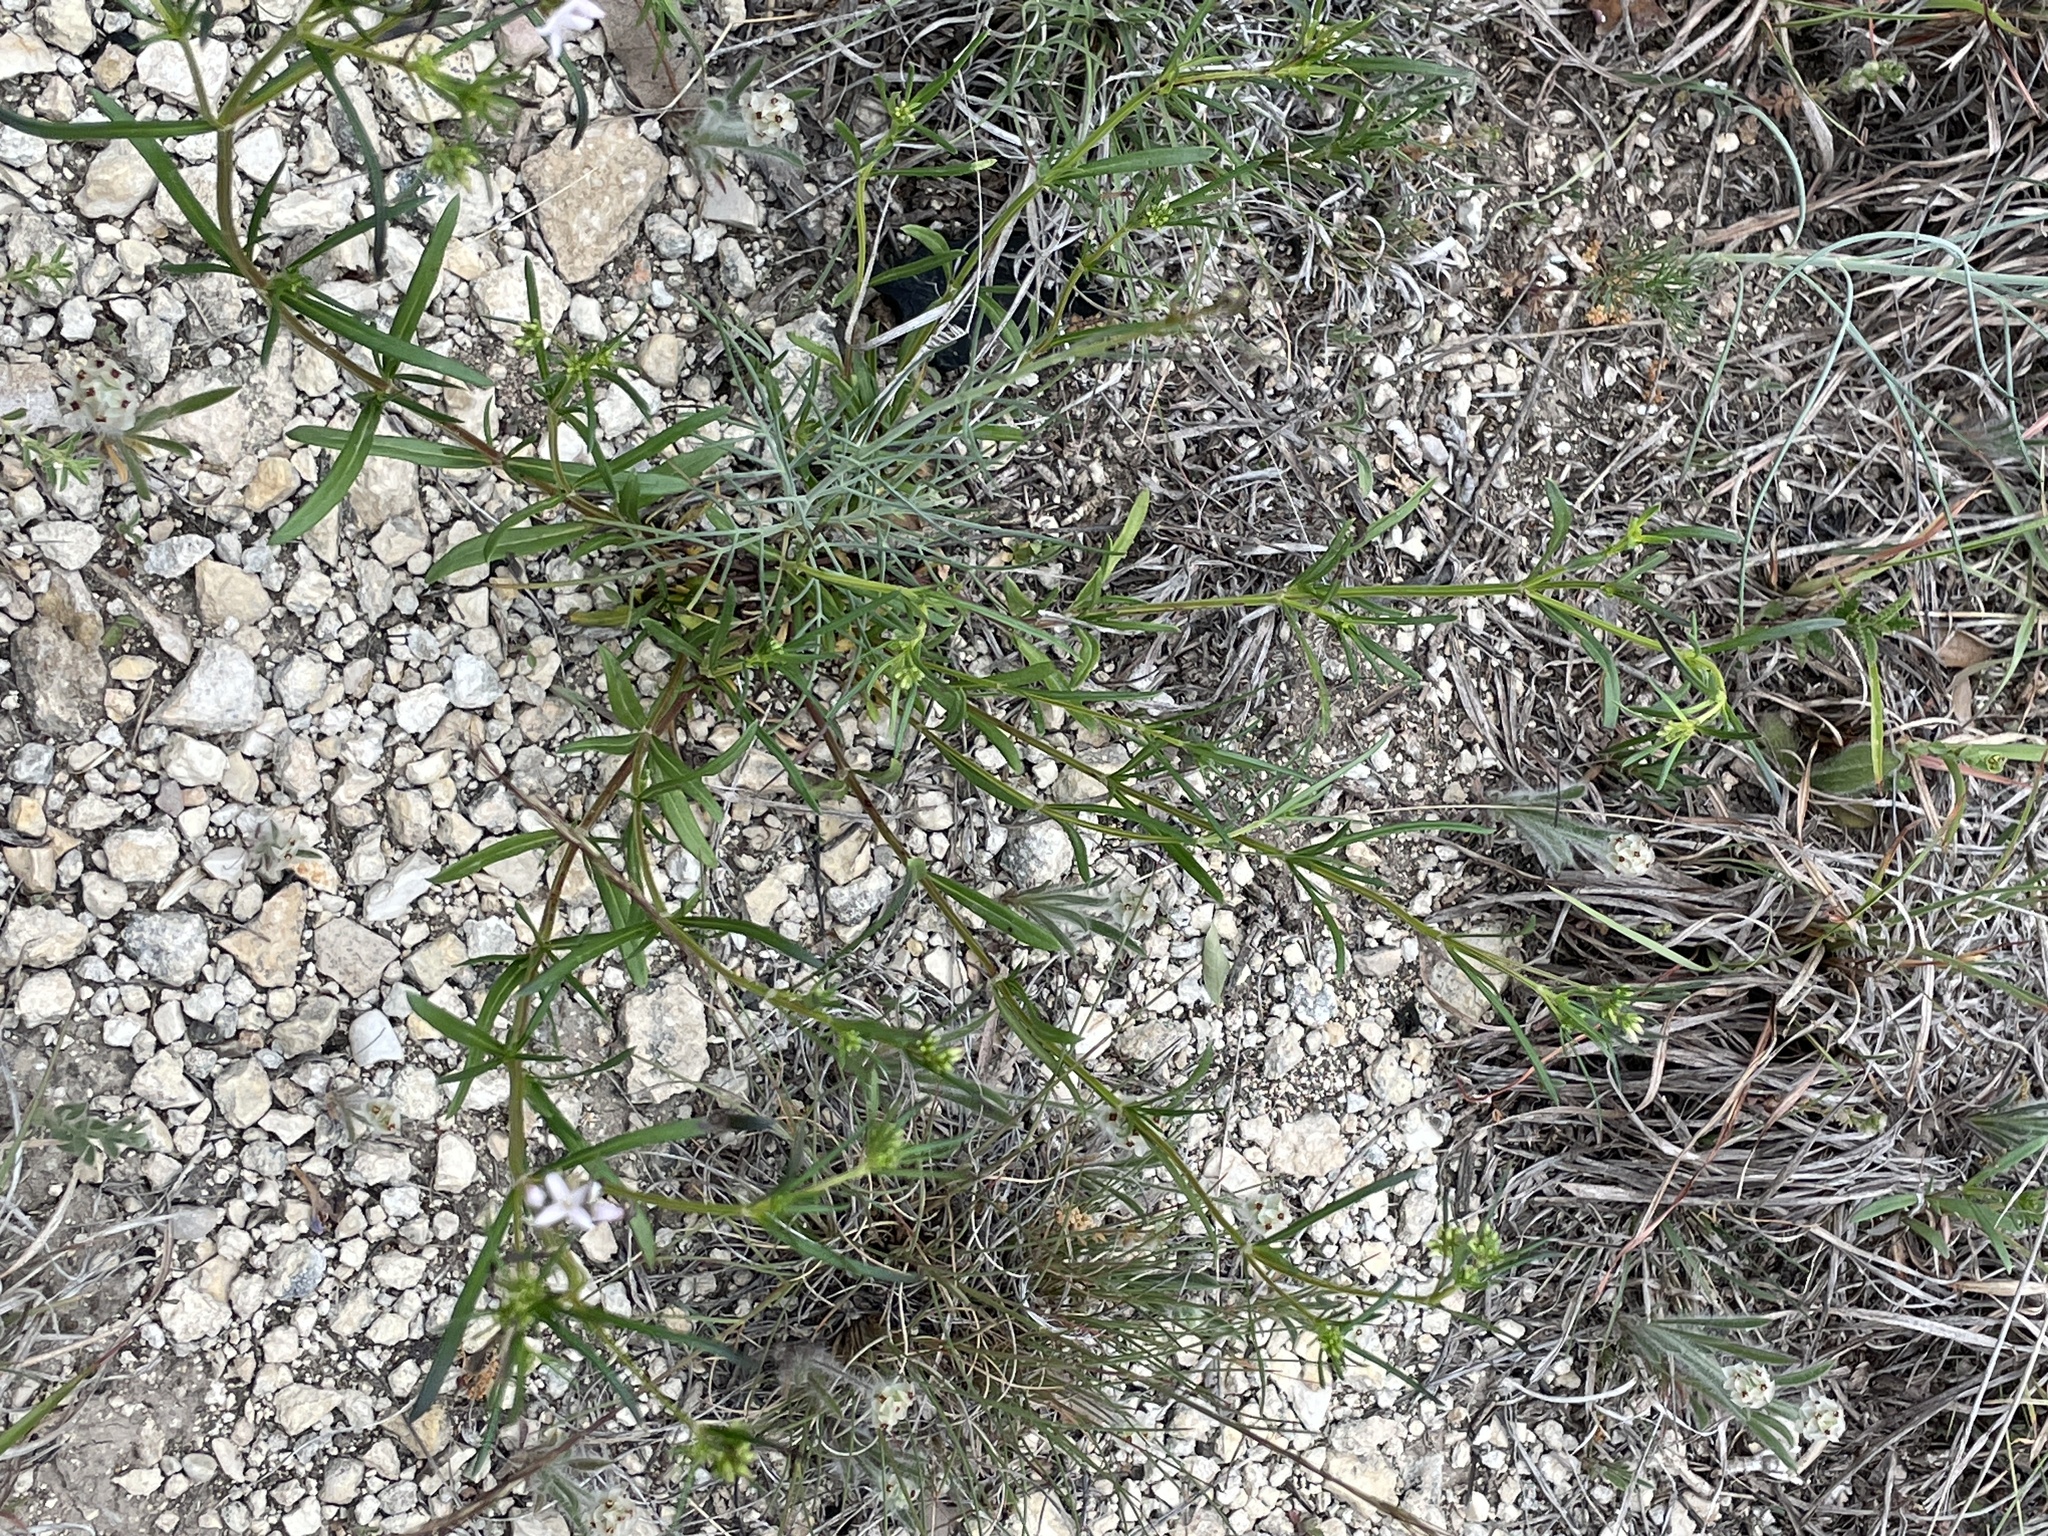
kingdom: Plantae
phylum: Tracheophyta
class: Magnoliopsida
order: Gentianales
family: Rubiaceae
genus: Stenaria
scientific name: Stenaria nigricans
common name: Diamondflowers
